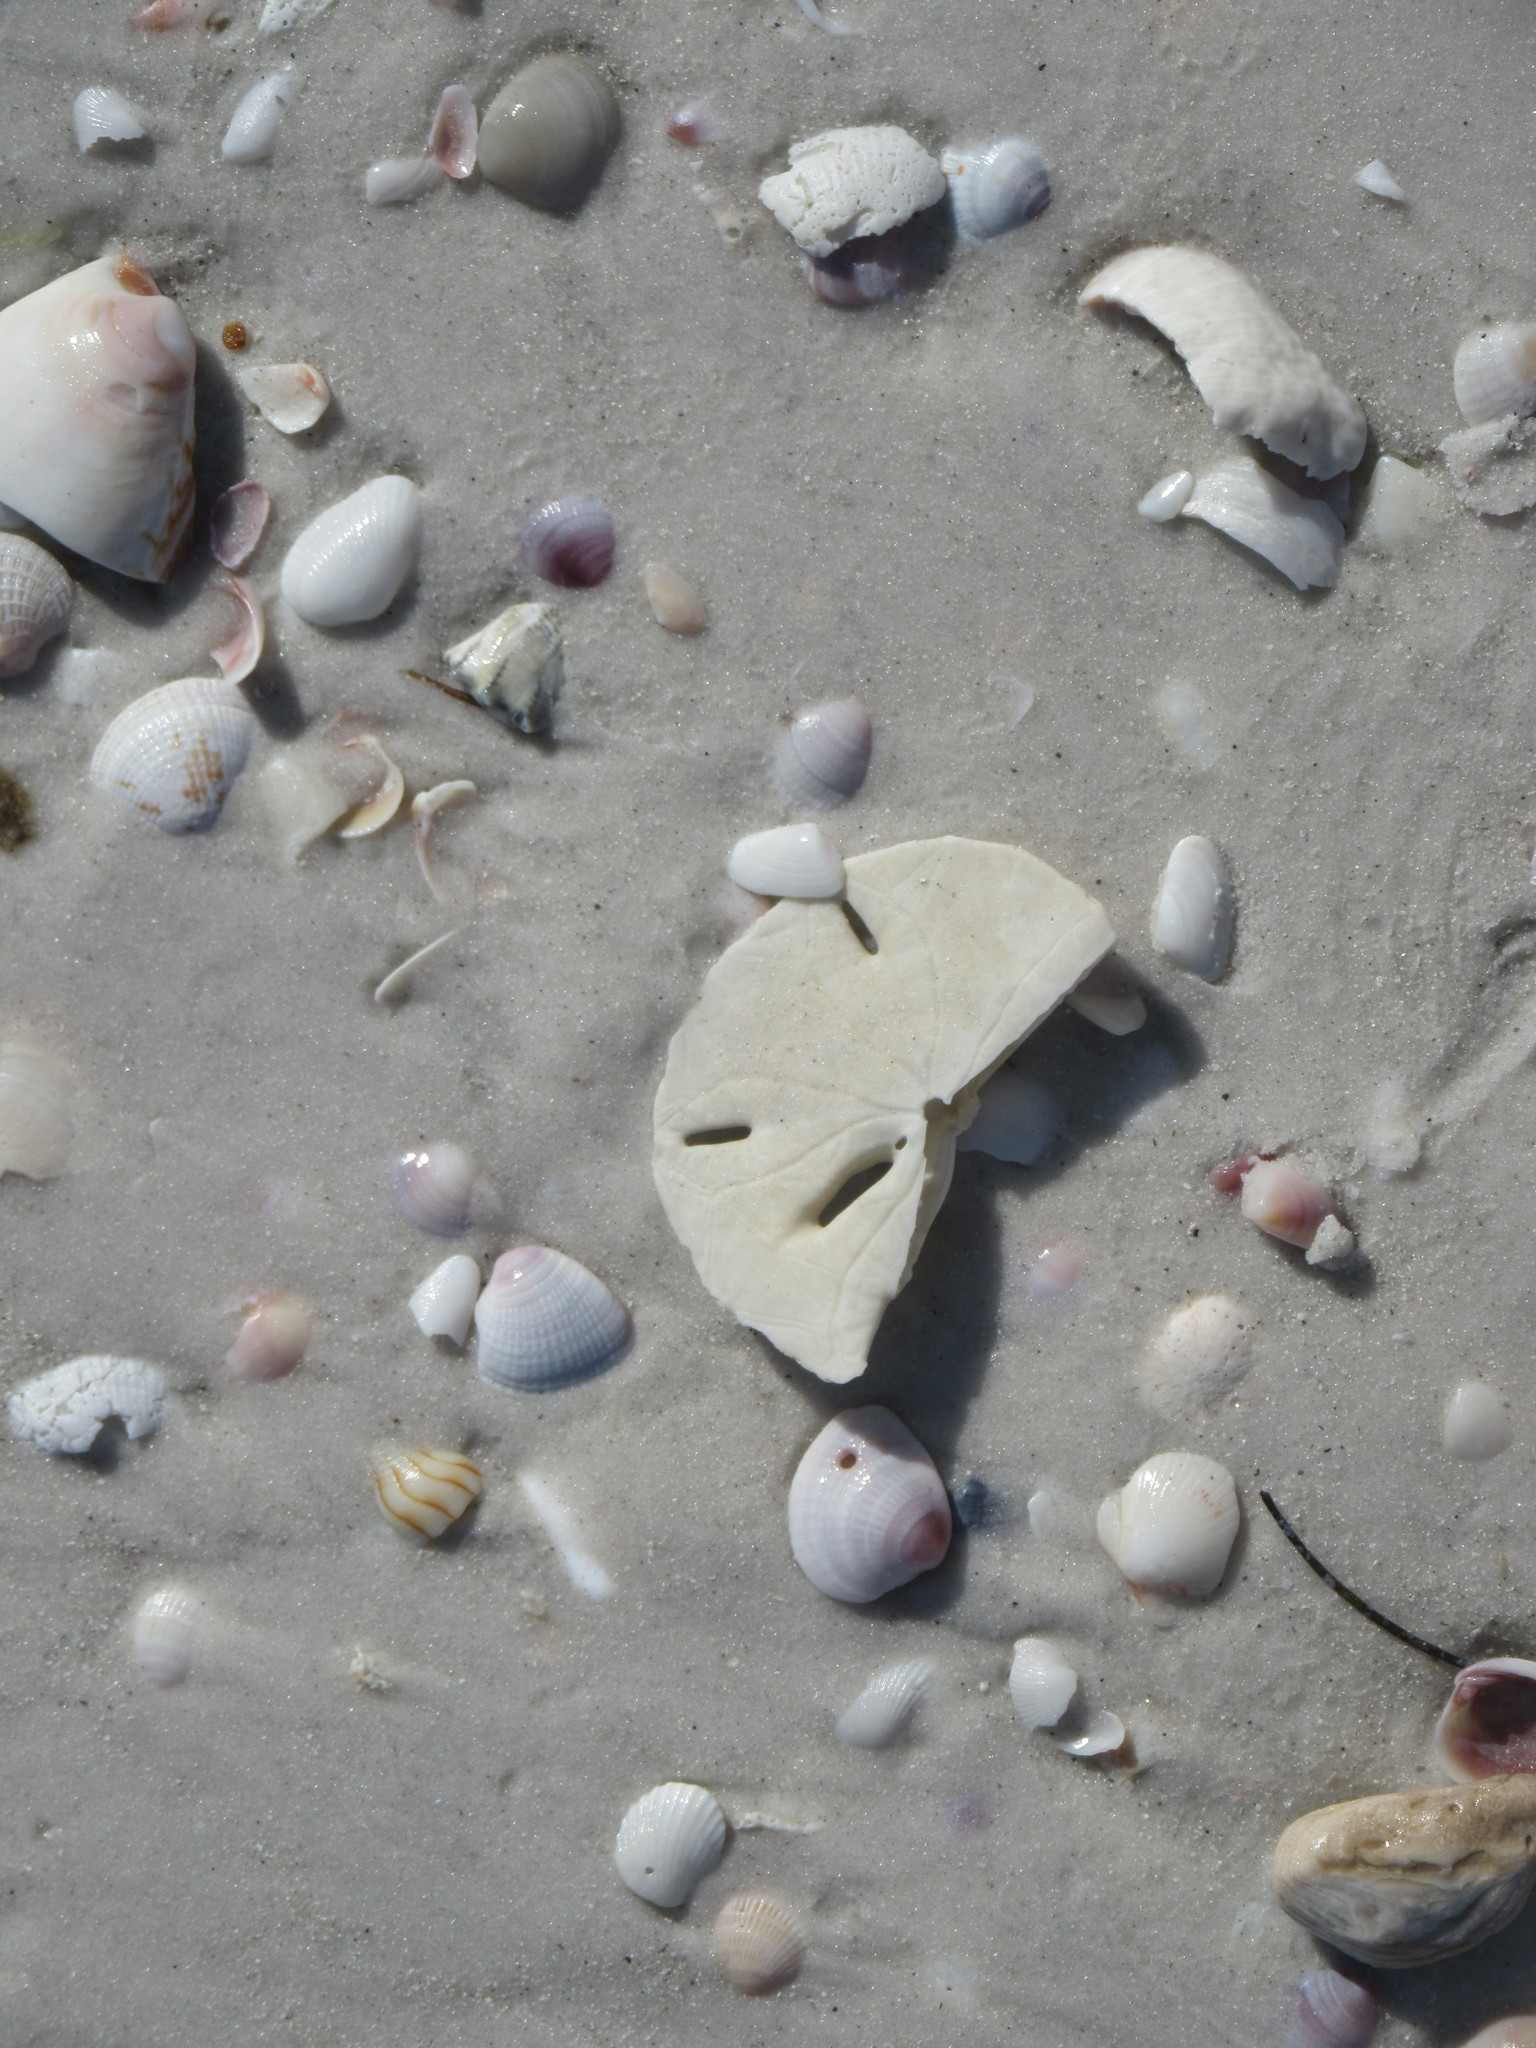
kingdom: Animalia
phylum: Echinodermata
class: Echinoidea
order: Echinolampadacea
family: Mellitidae
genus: Mellita
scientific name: Mellita tenuis
